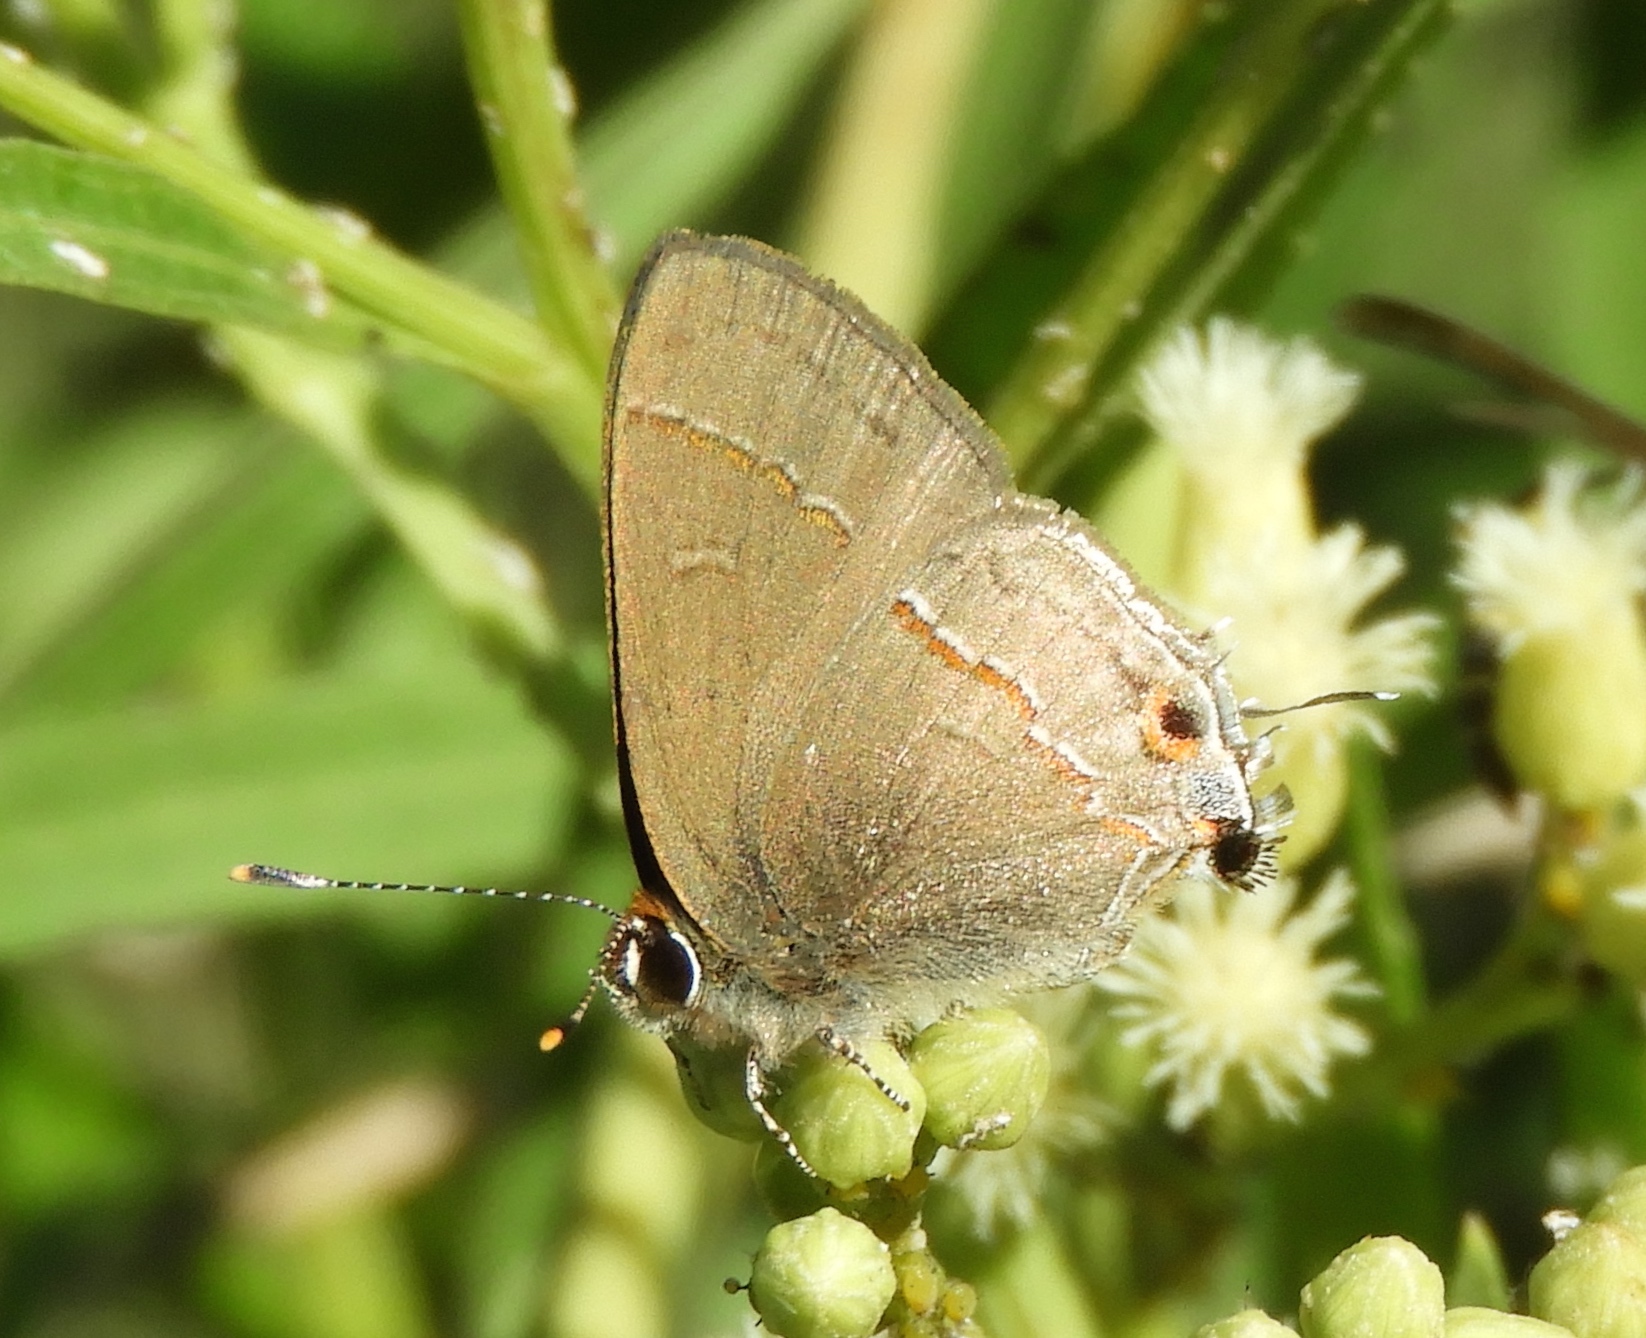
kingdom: Animalia
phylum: Arthropoda
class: Insecta
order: Lepidoptera
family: Lycaenidae
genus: Electrostrymon
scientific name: Electrostrymon endymion
